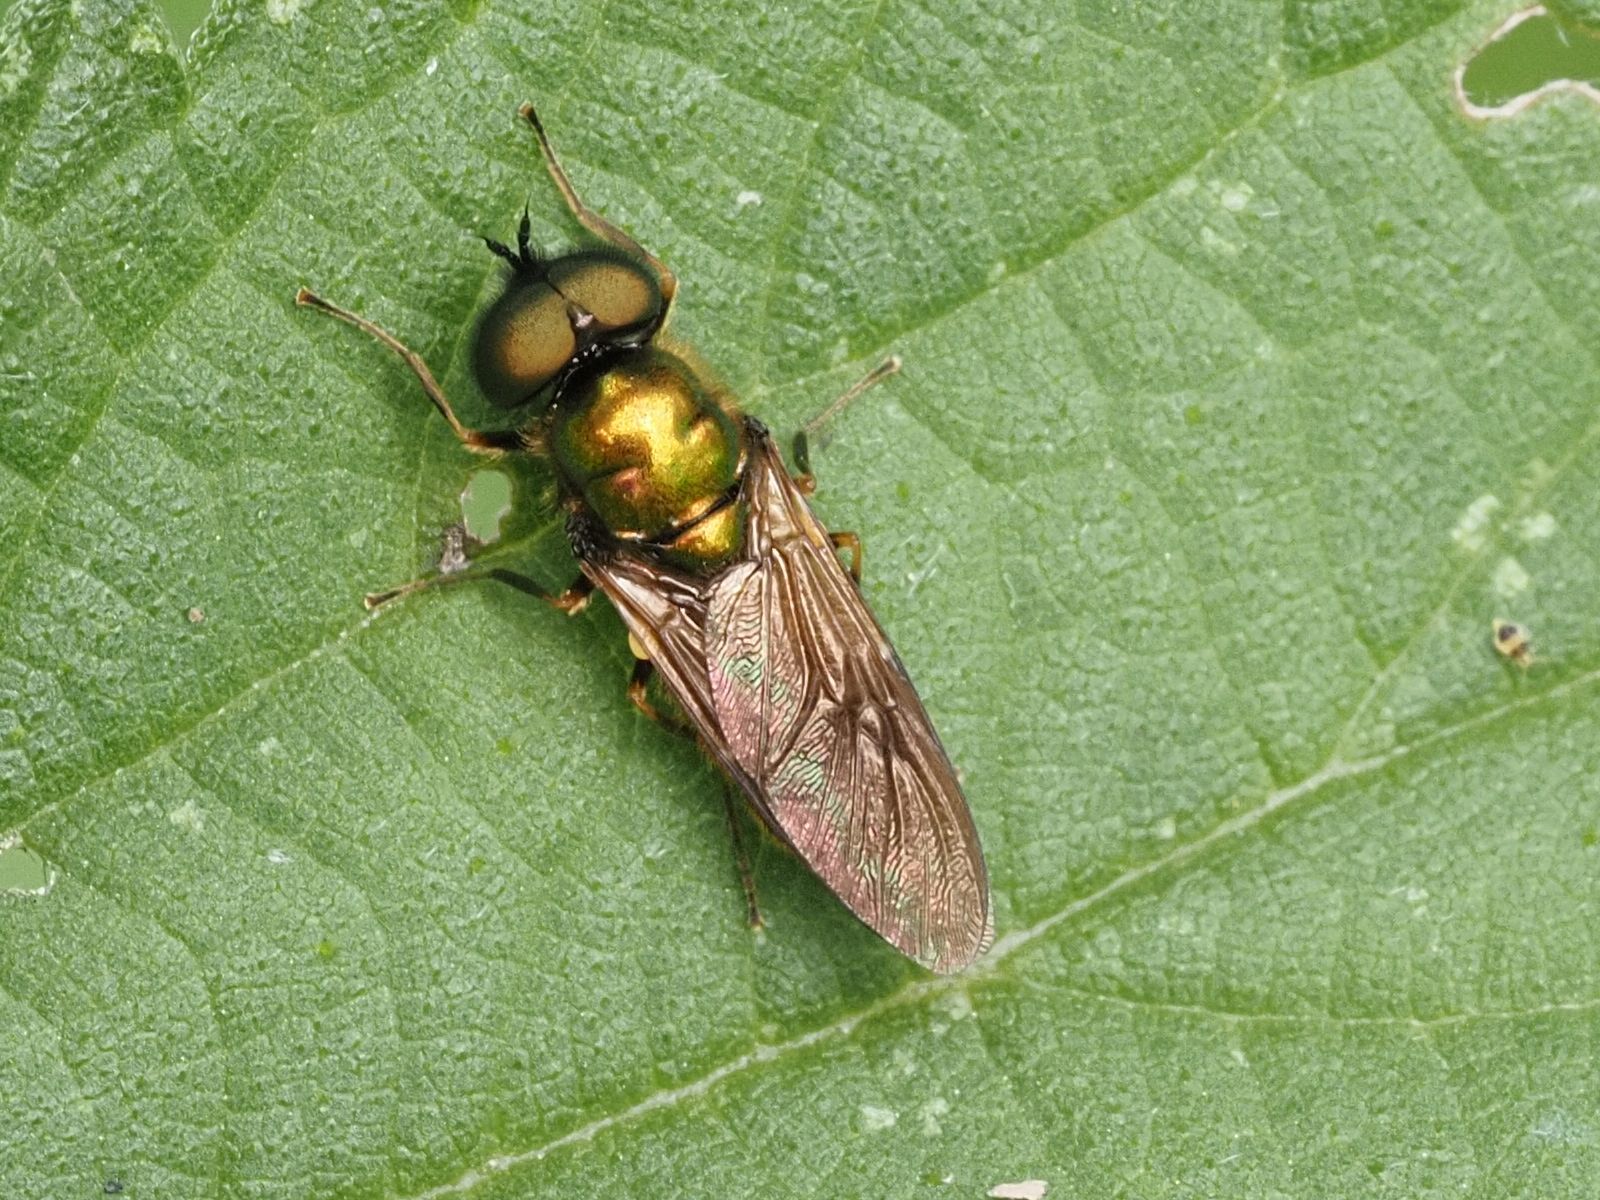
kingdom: Animalia
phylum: Arthropoda
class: Insecta
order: Diptera
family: Stratiomyidae
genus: Chloromyia
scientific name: Chloromyia formosa
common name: Soldier fly
